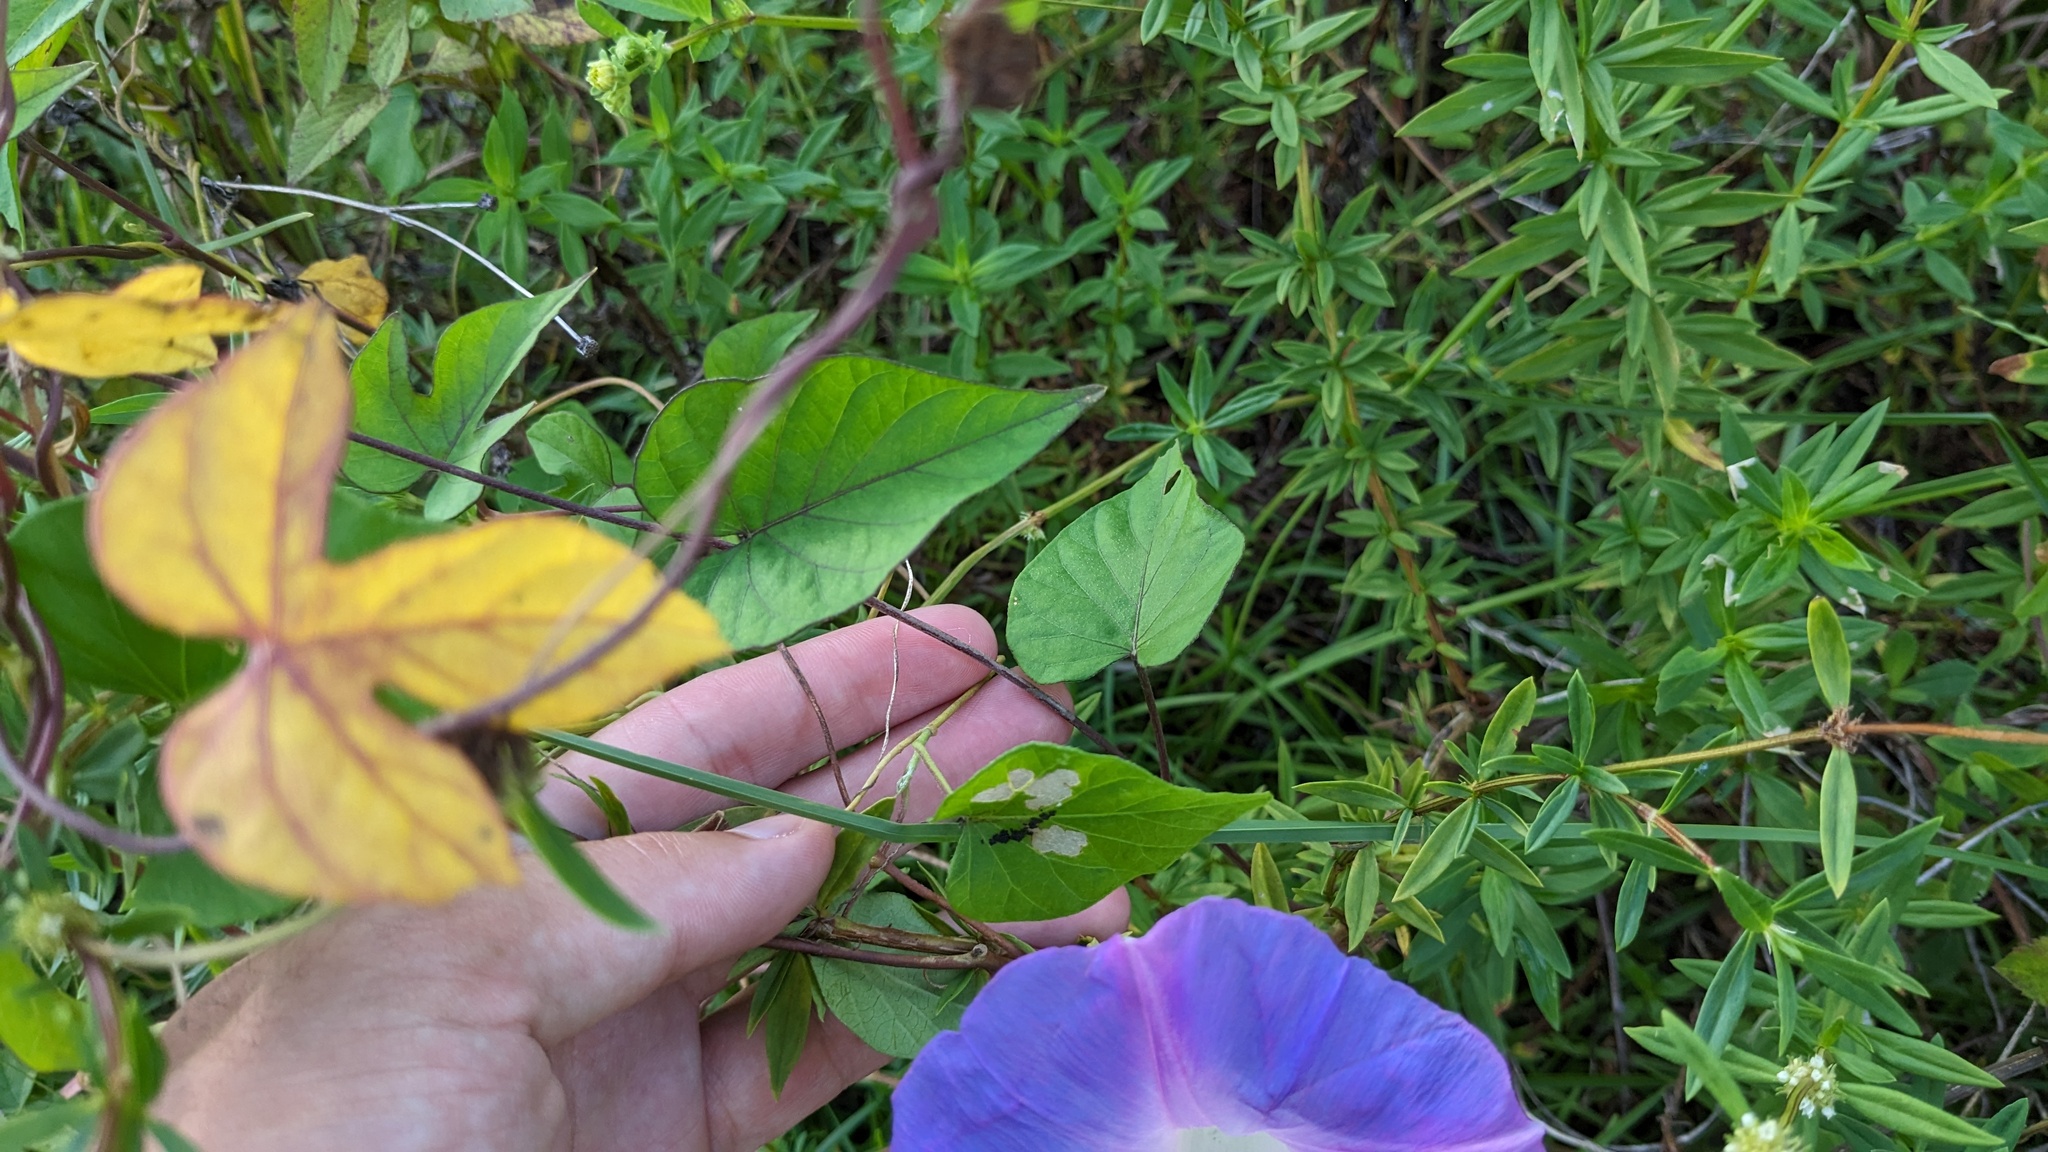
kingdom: Plantae
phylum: Tracheophyta
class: Magnoliopsida
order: Solanales
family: Convolvulaceae
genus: Ipomoea
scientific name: Ipomoea indica
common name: Blue dawnflower
